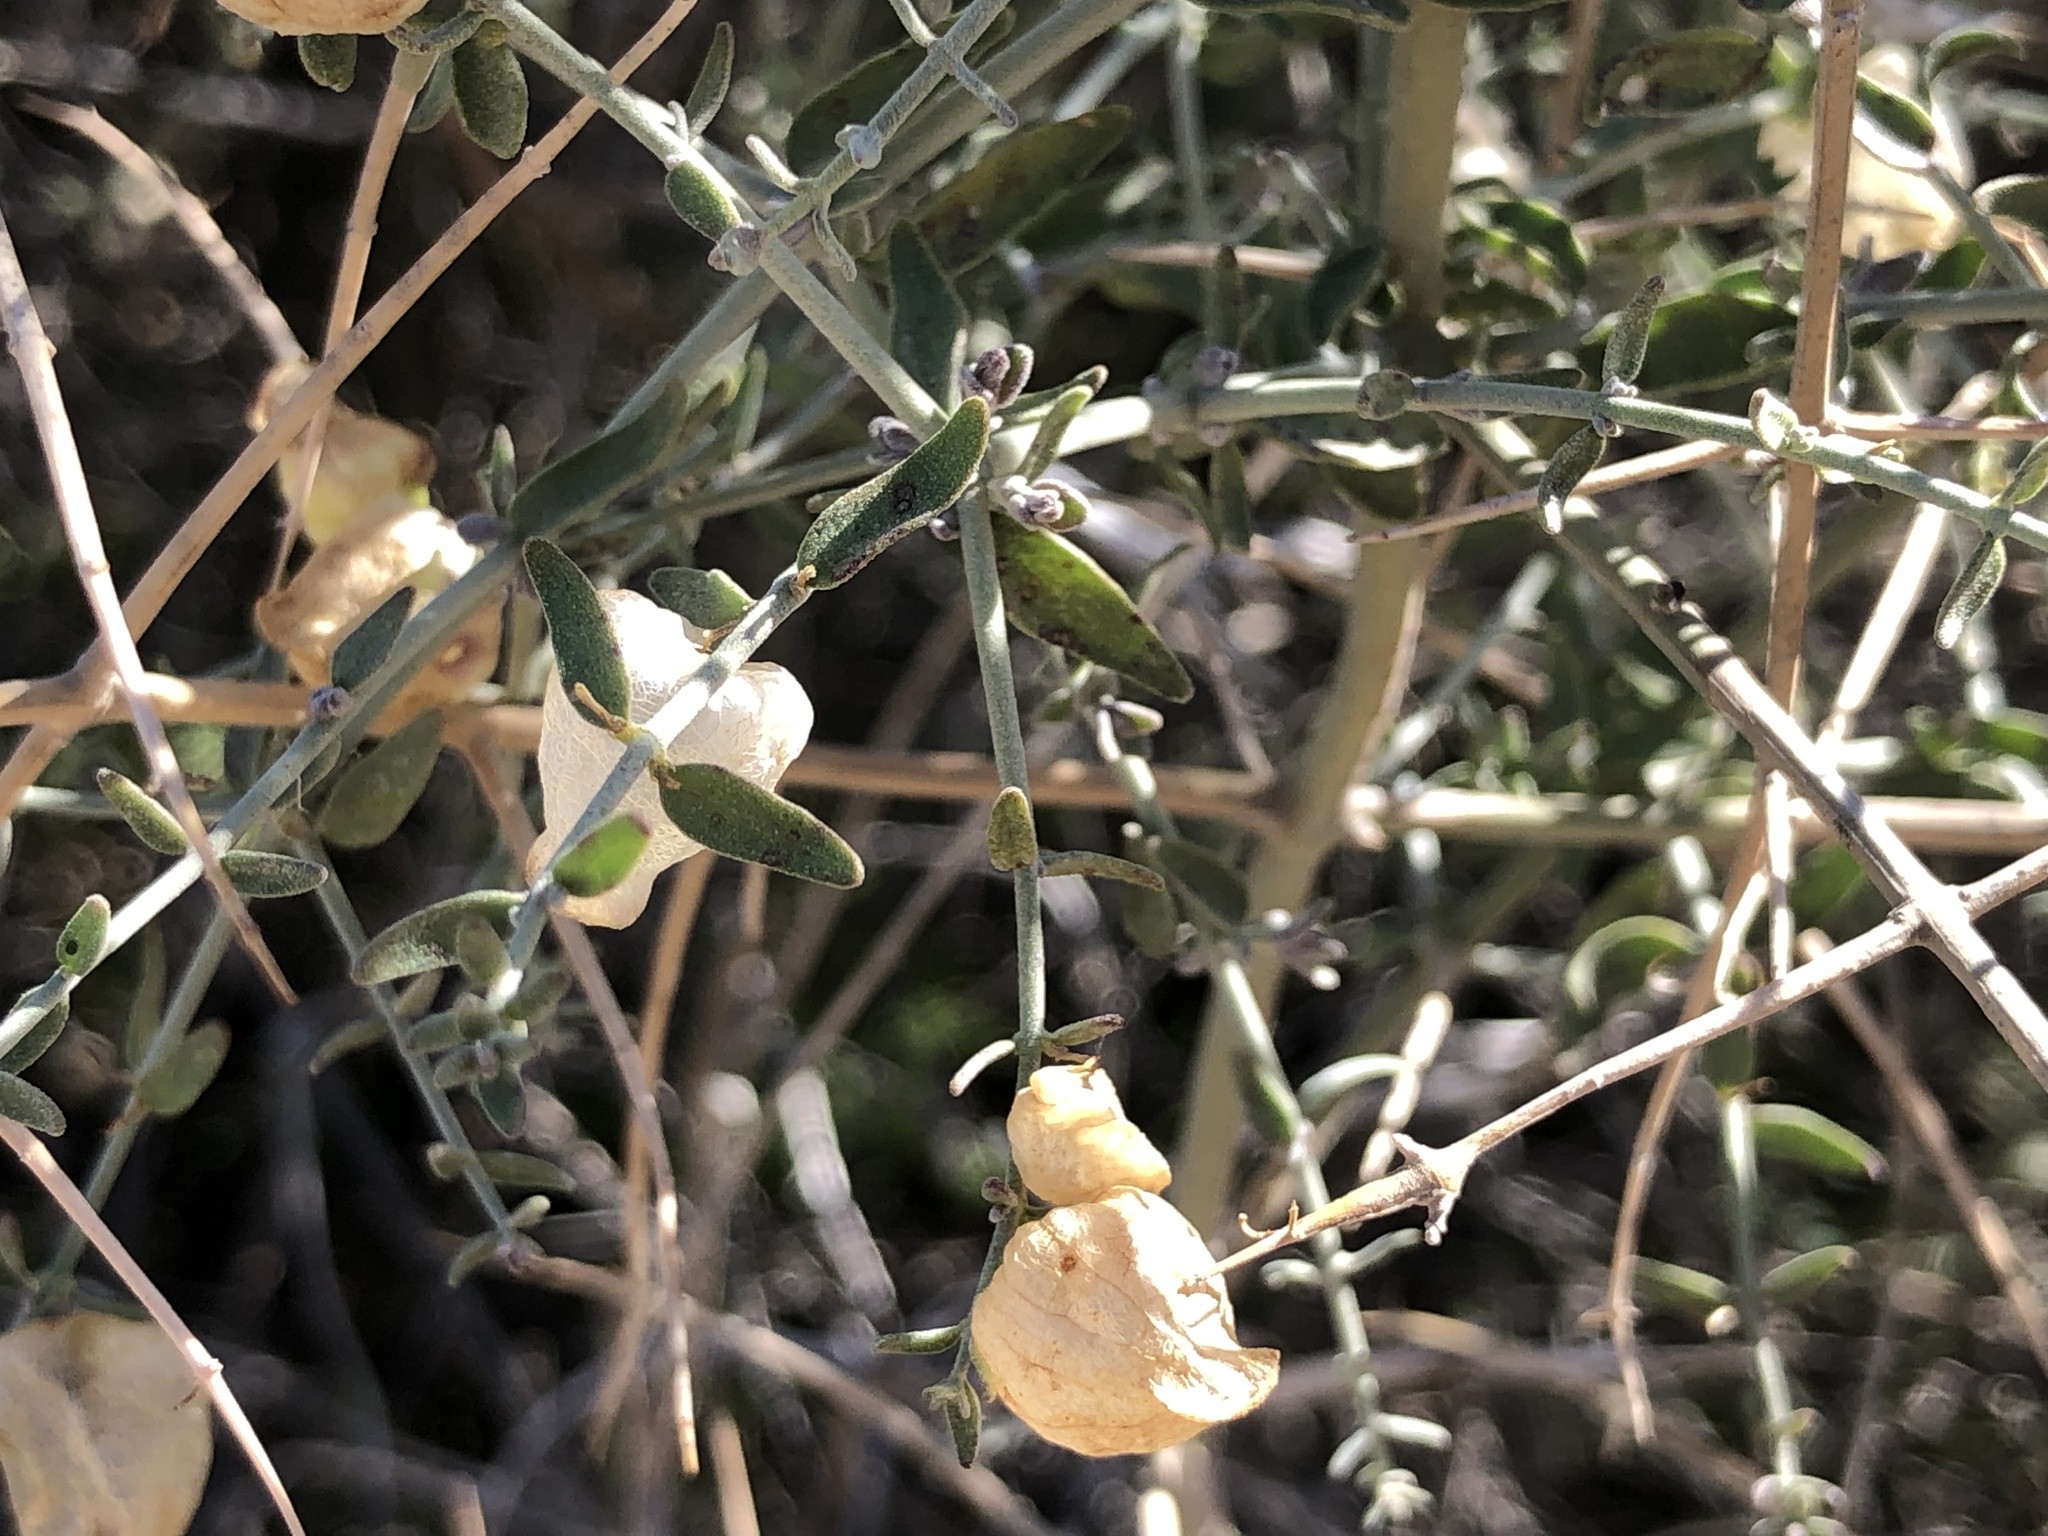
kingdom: Plantae
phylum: Tracheophyta
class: Magnoliopsida
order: Lamiales
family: Lamiaceae
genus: Scutellaria
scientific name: Scutellaria mexicana
